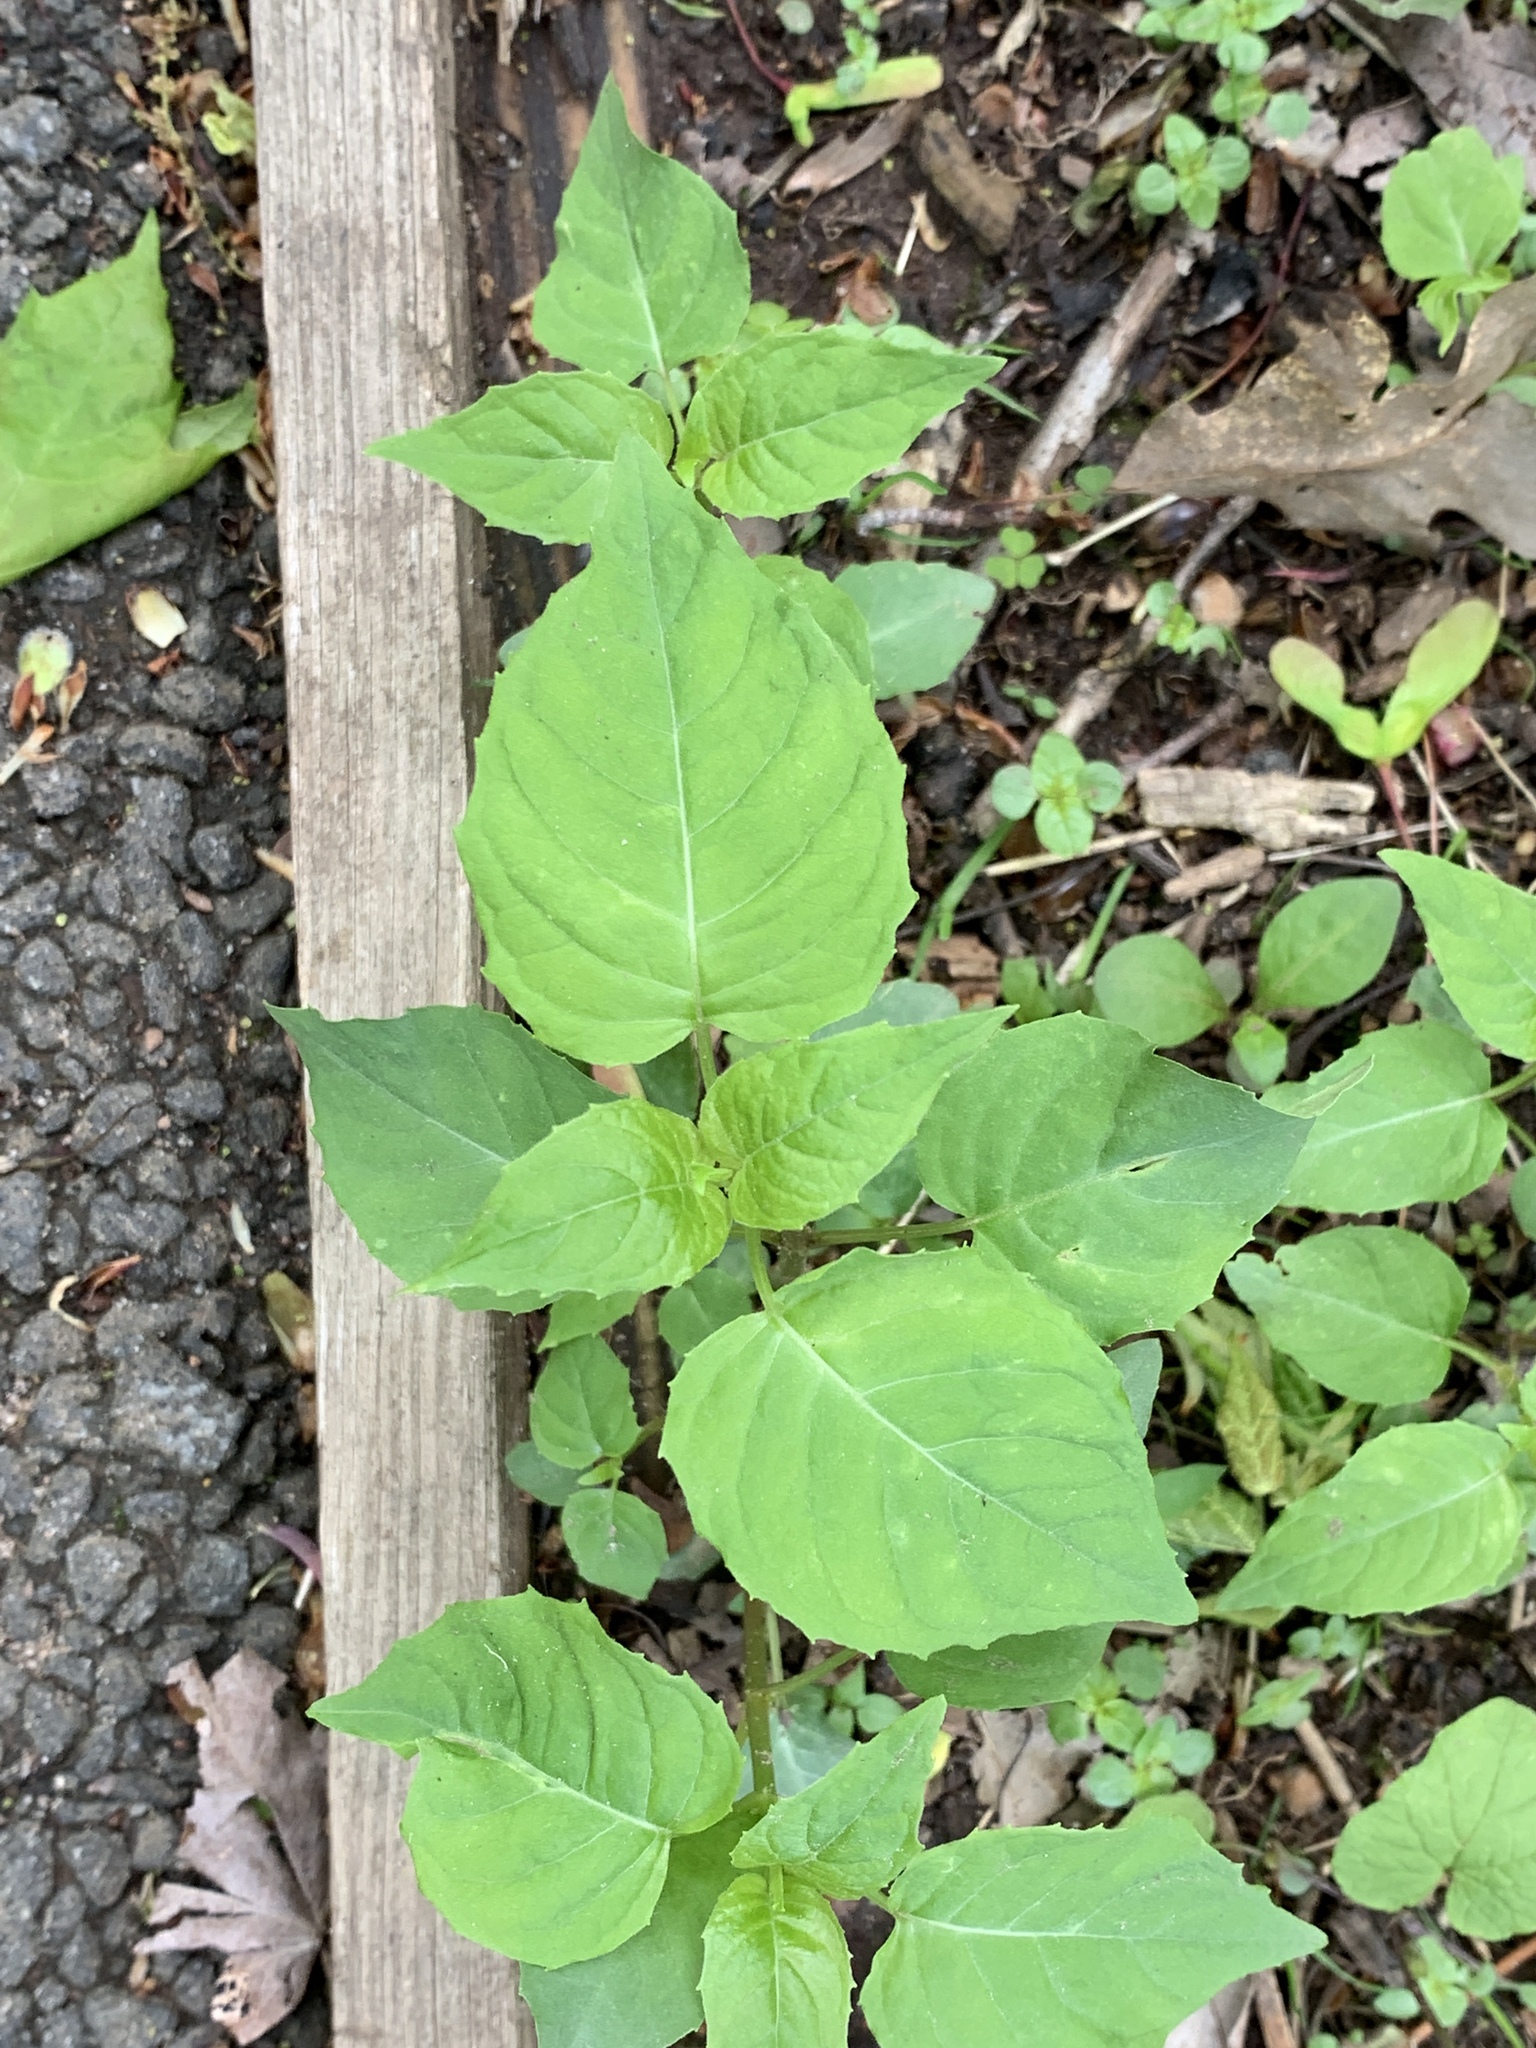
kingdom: Plantae
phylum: Tracheophyta
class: Magnoliopsida
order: Myrtales
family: Onagraceae
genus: Circaea
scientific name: Circaea canadensis
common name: Broad-leaved enchanter's nightshade
